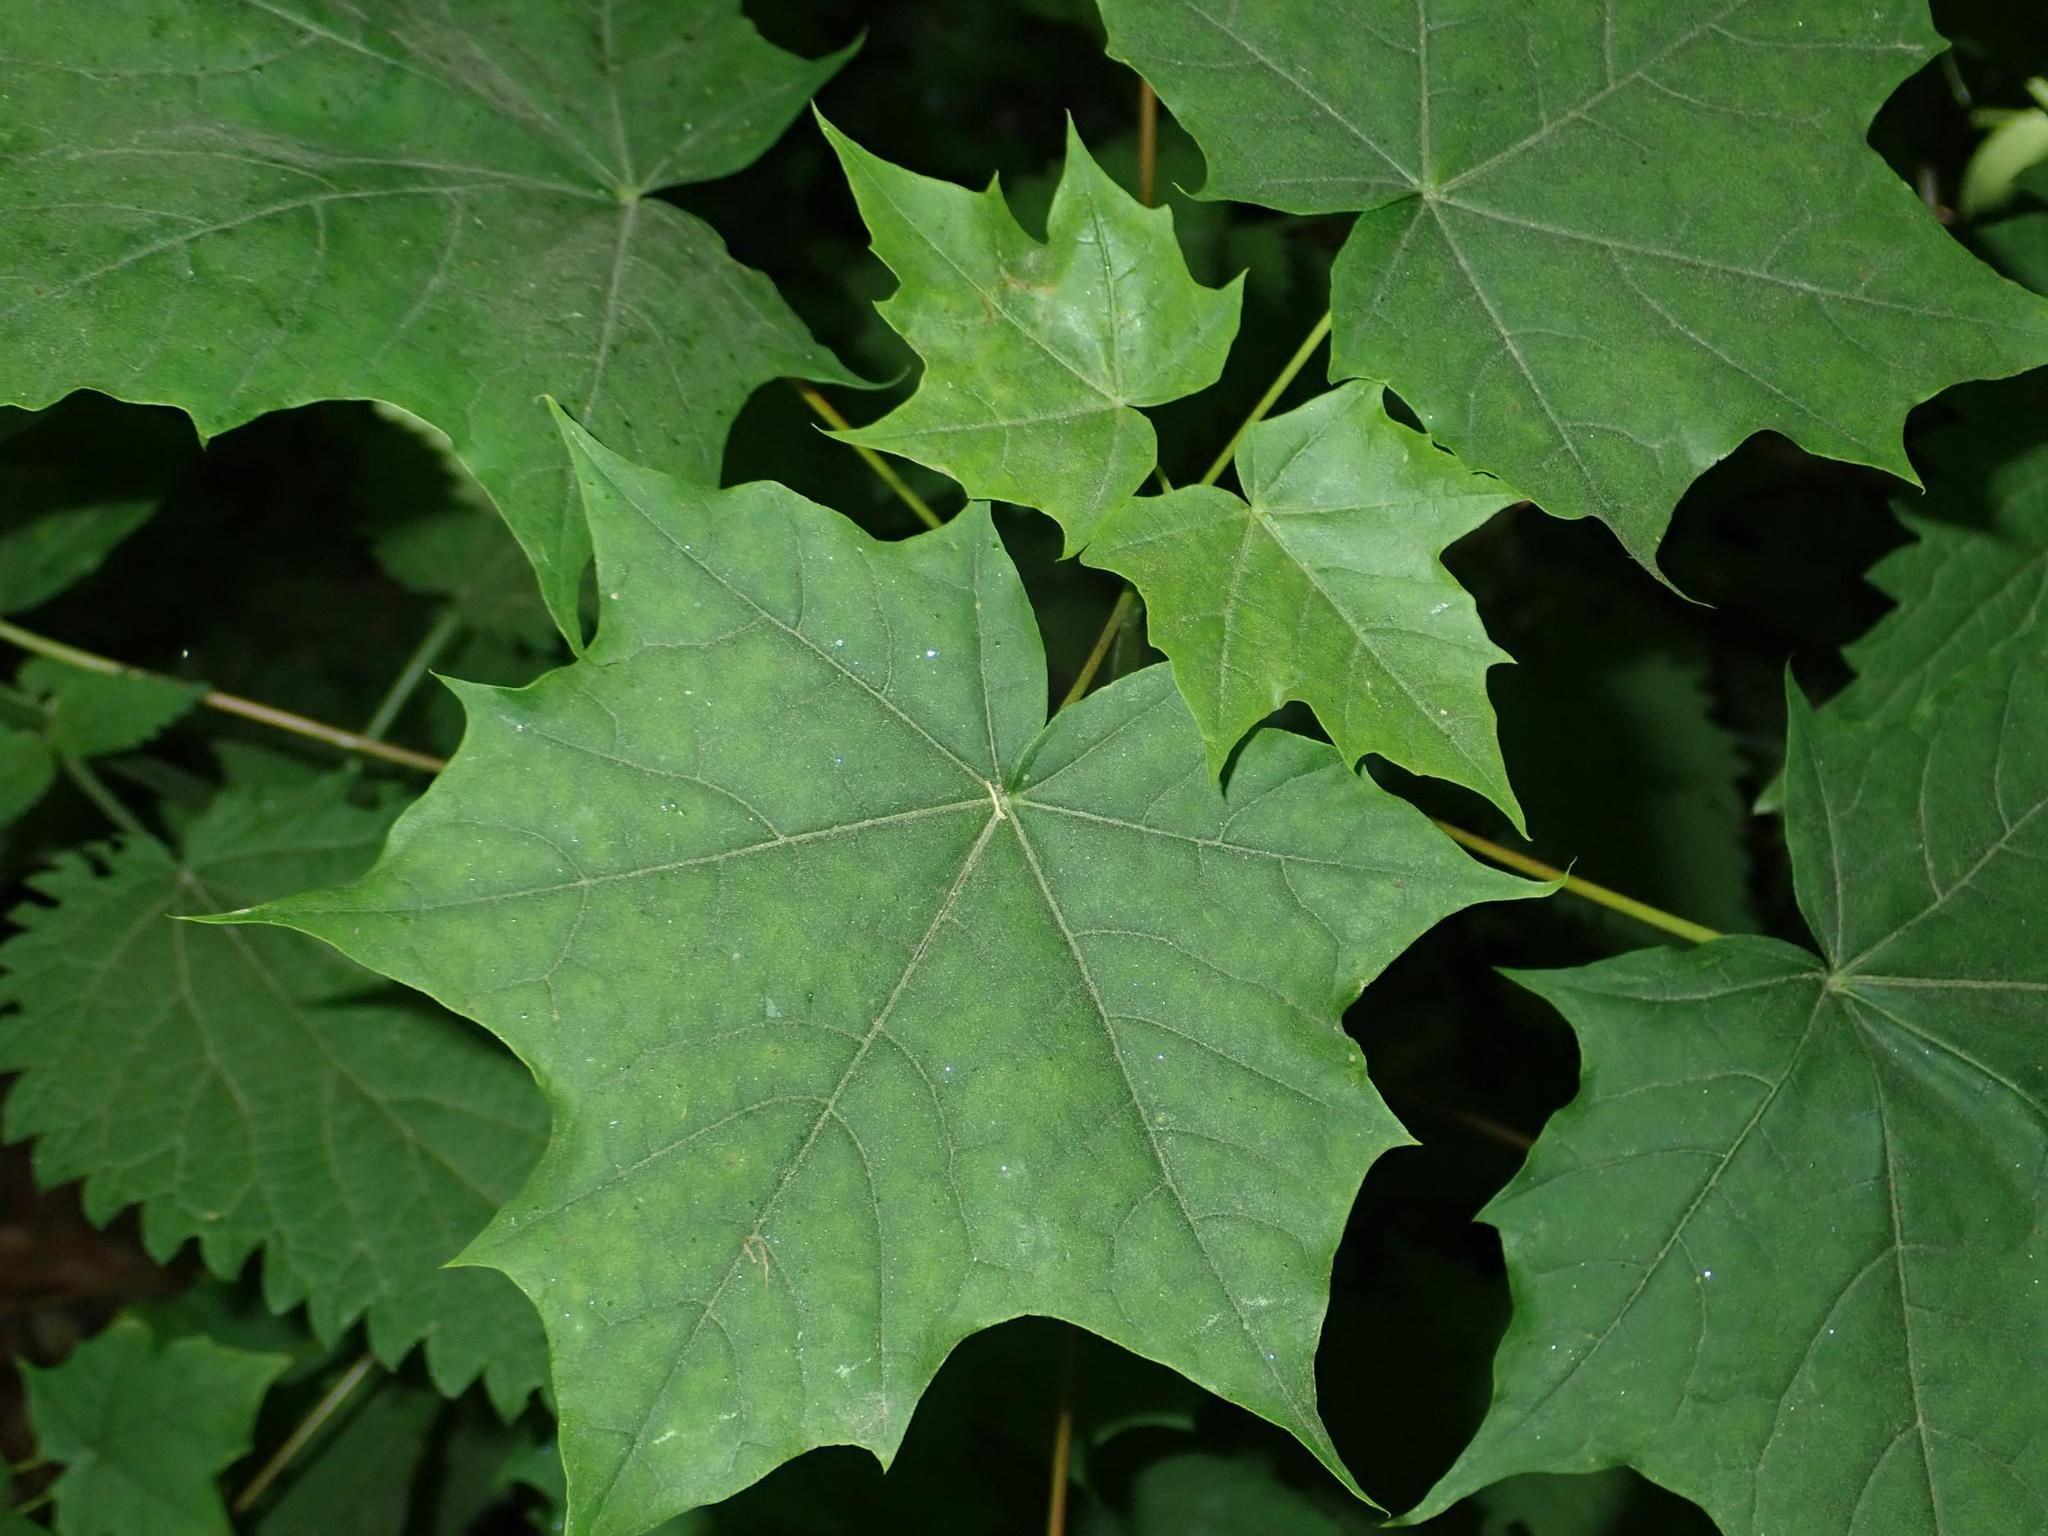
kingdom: Plantae
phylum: Tracheophyta
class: Magnoliopsida
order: Sapindales
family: Sapindaceae
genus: Acer
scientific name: Acer platanoides
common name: Norway maple
